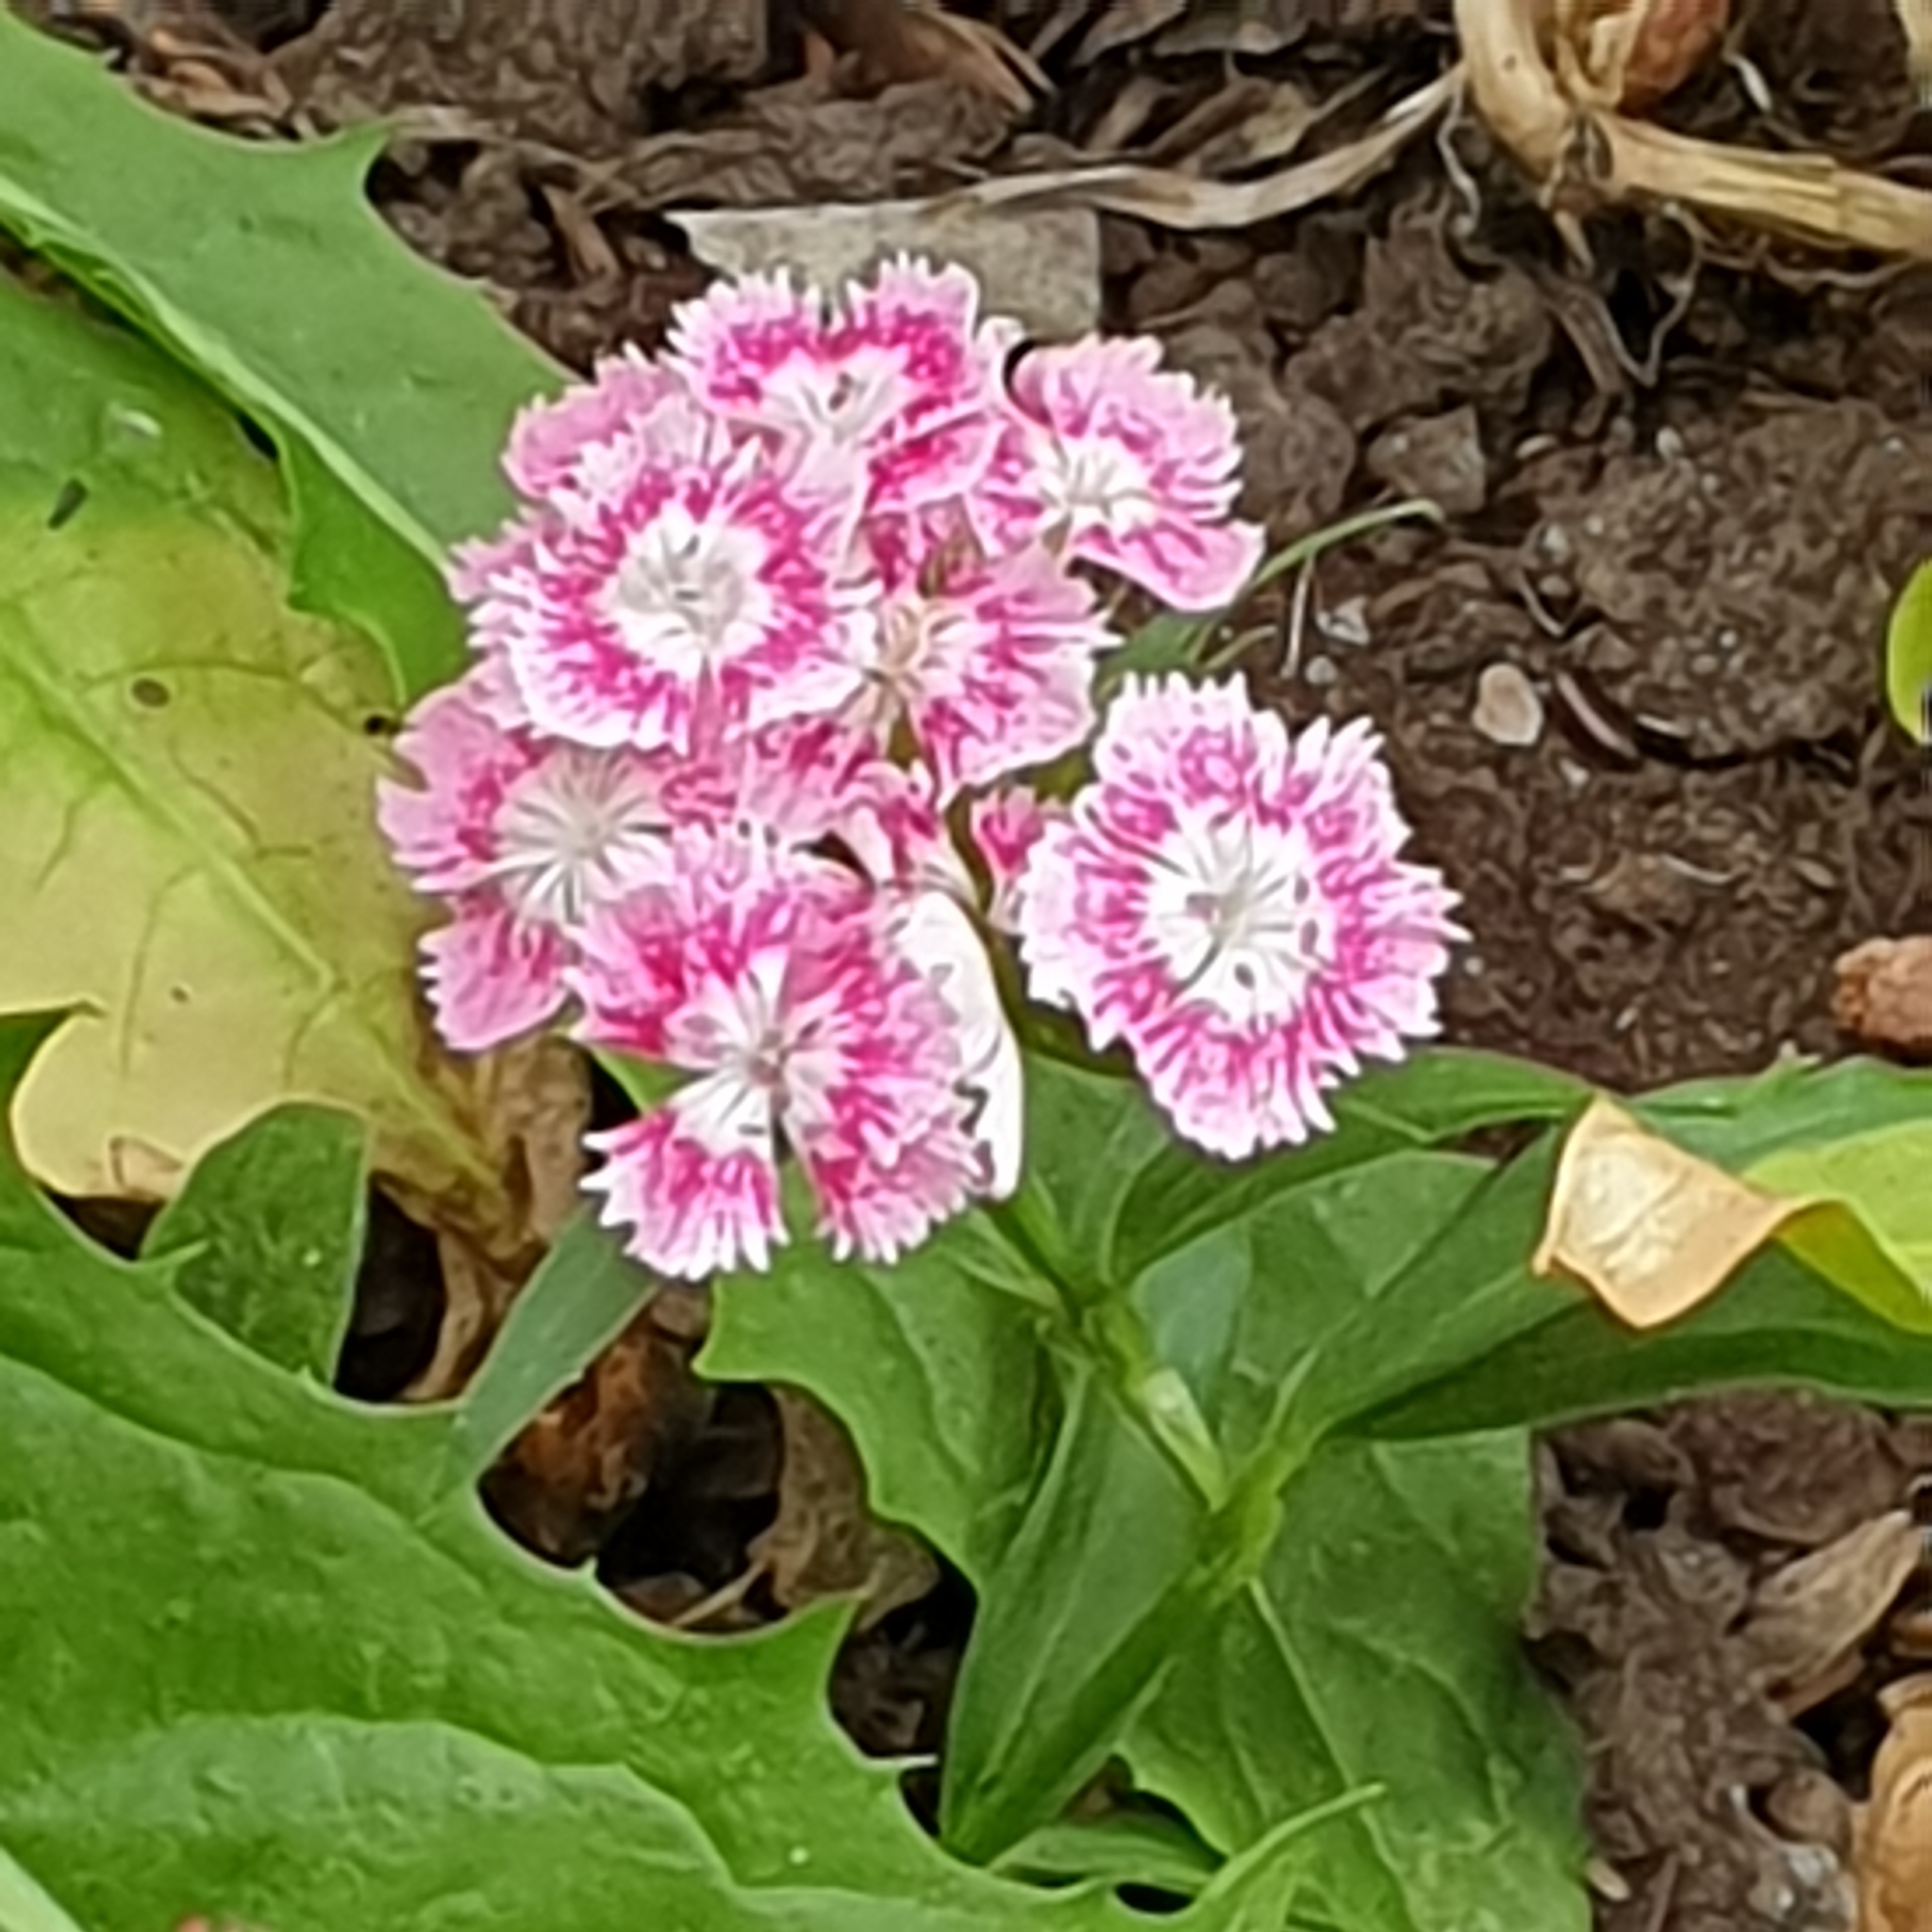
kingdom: Plantae
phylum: Tracheophyta
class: Magnoliopsida
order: Caryophyllales
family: Caryophyllaceae
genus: Dianthus
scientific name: Dianthus barbatus
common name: Sweet-william
